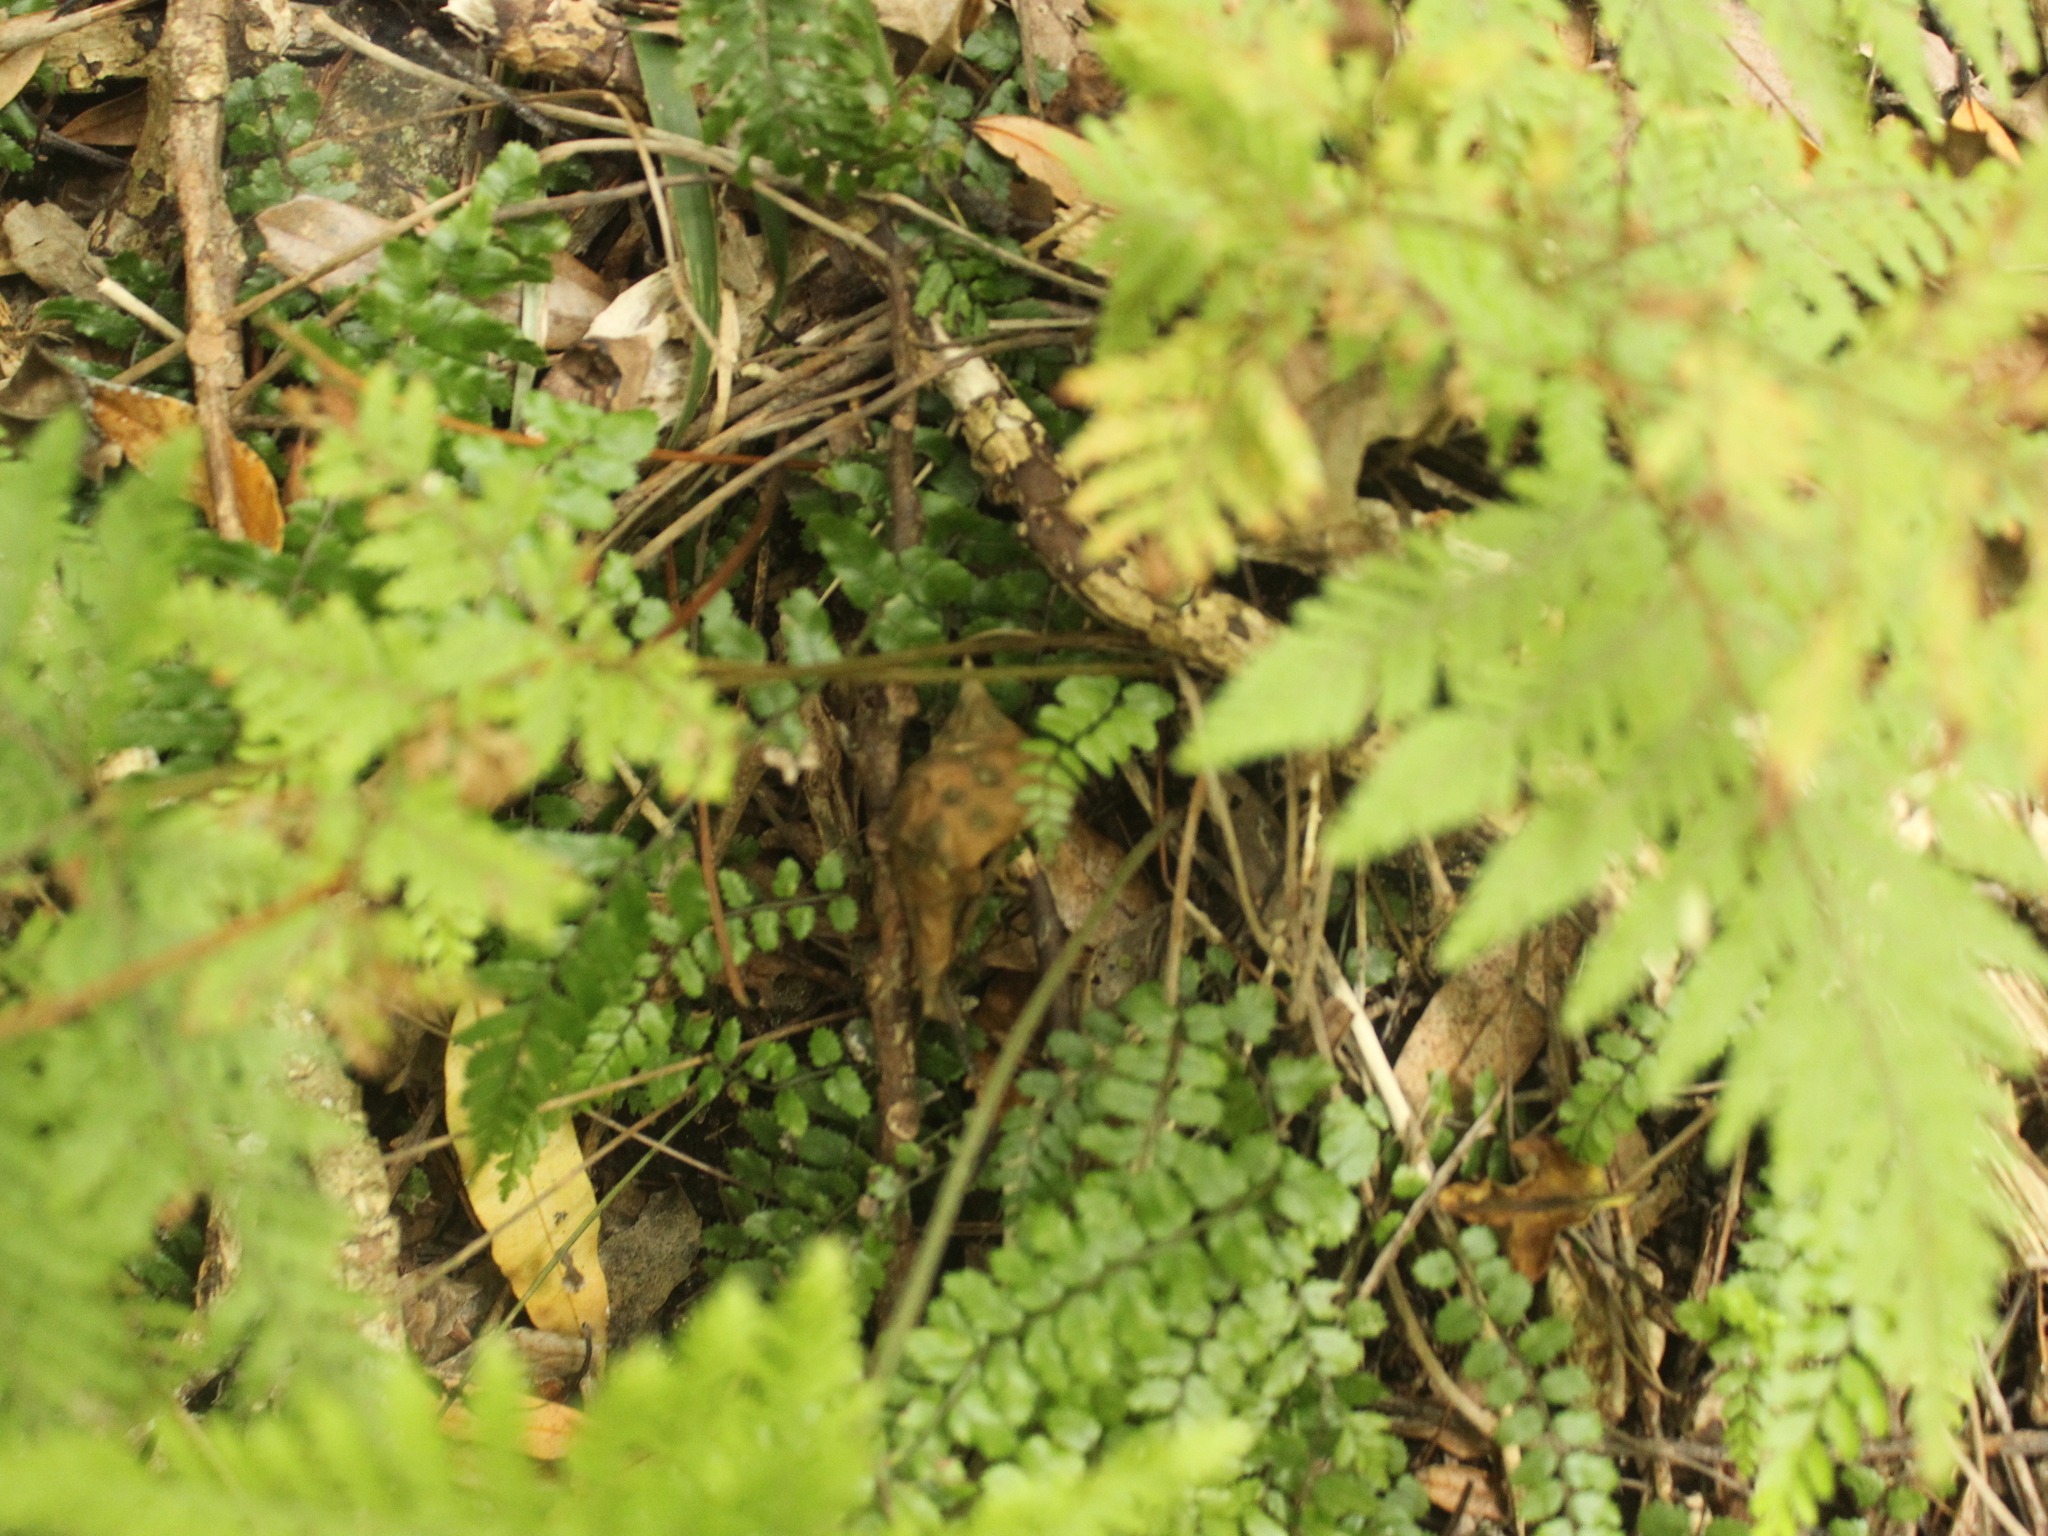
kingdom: Plantae
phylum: Tracheophyta
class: Polypodiopsida
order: Polypodiales
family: Dryopteridaceae
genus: Parapolystichum
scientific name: Parapolystichum microsorum
